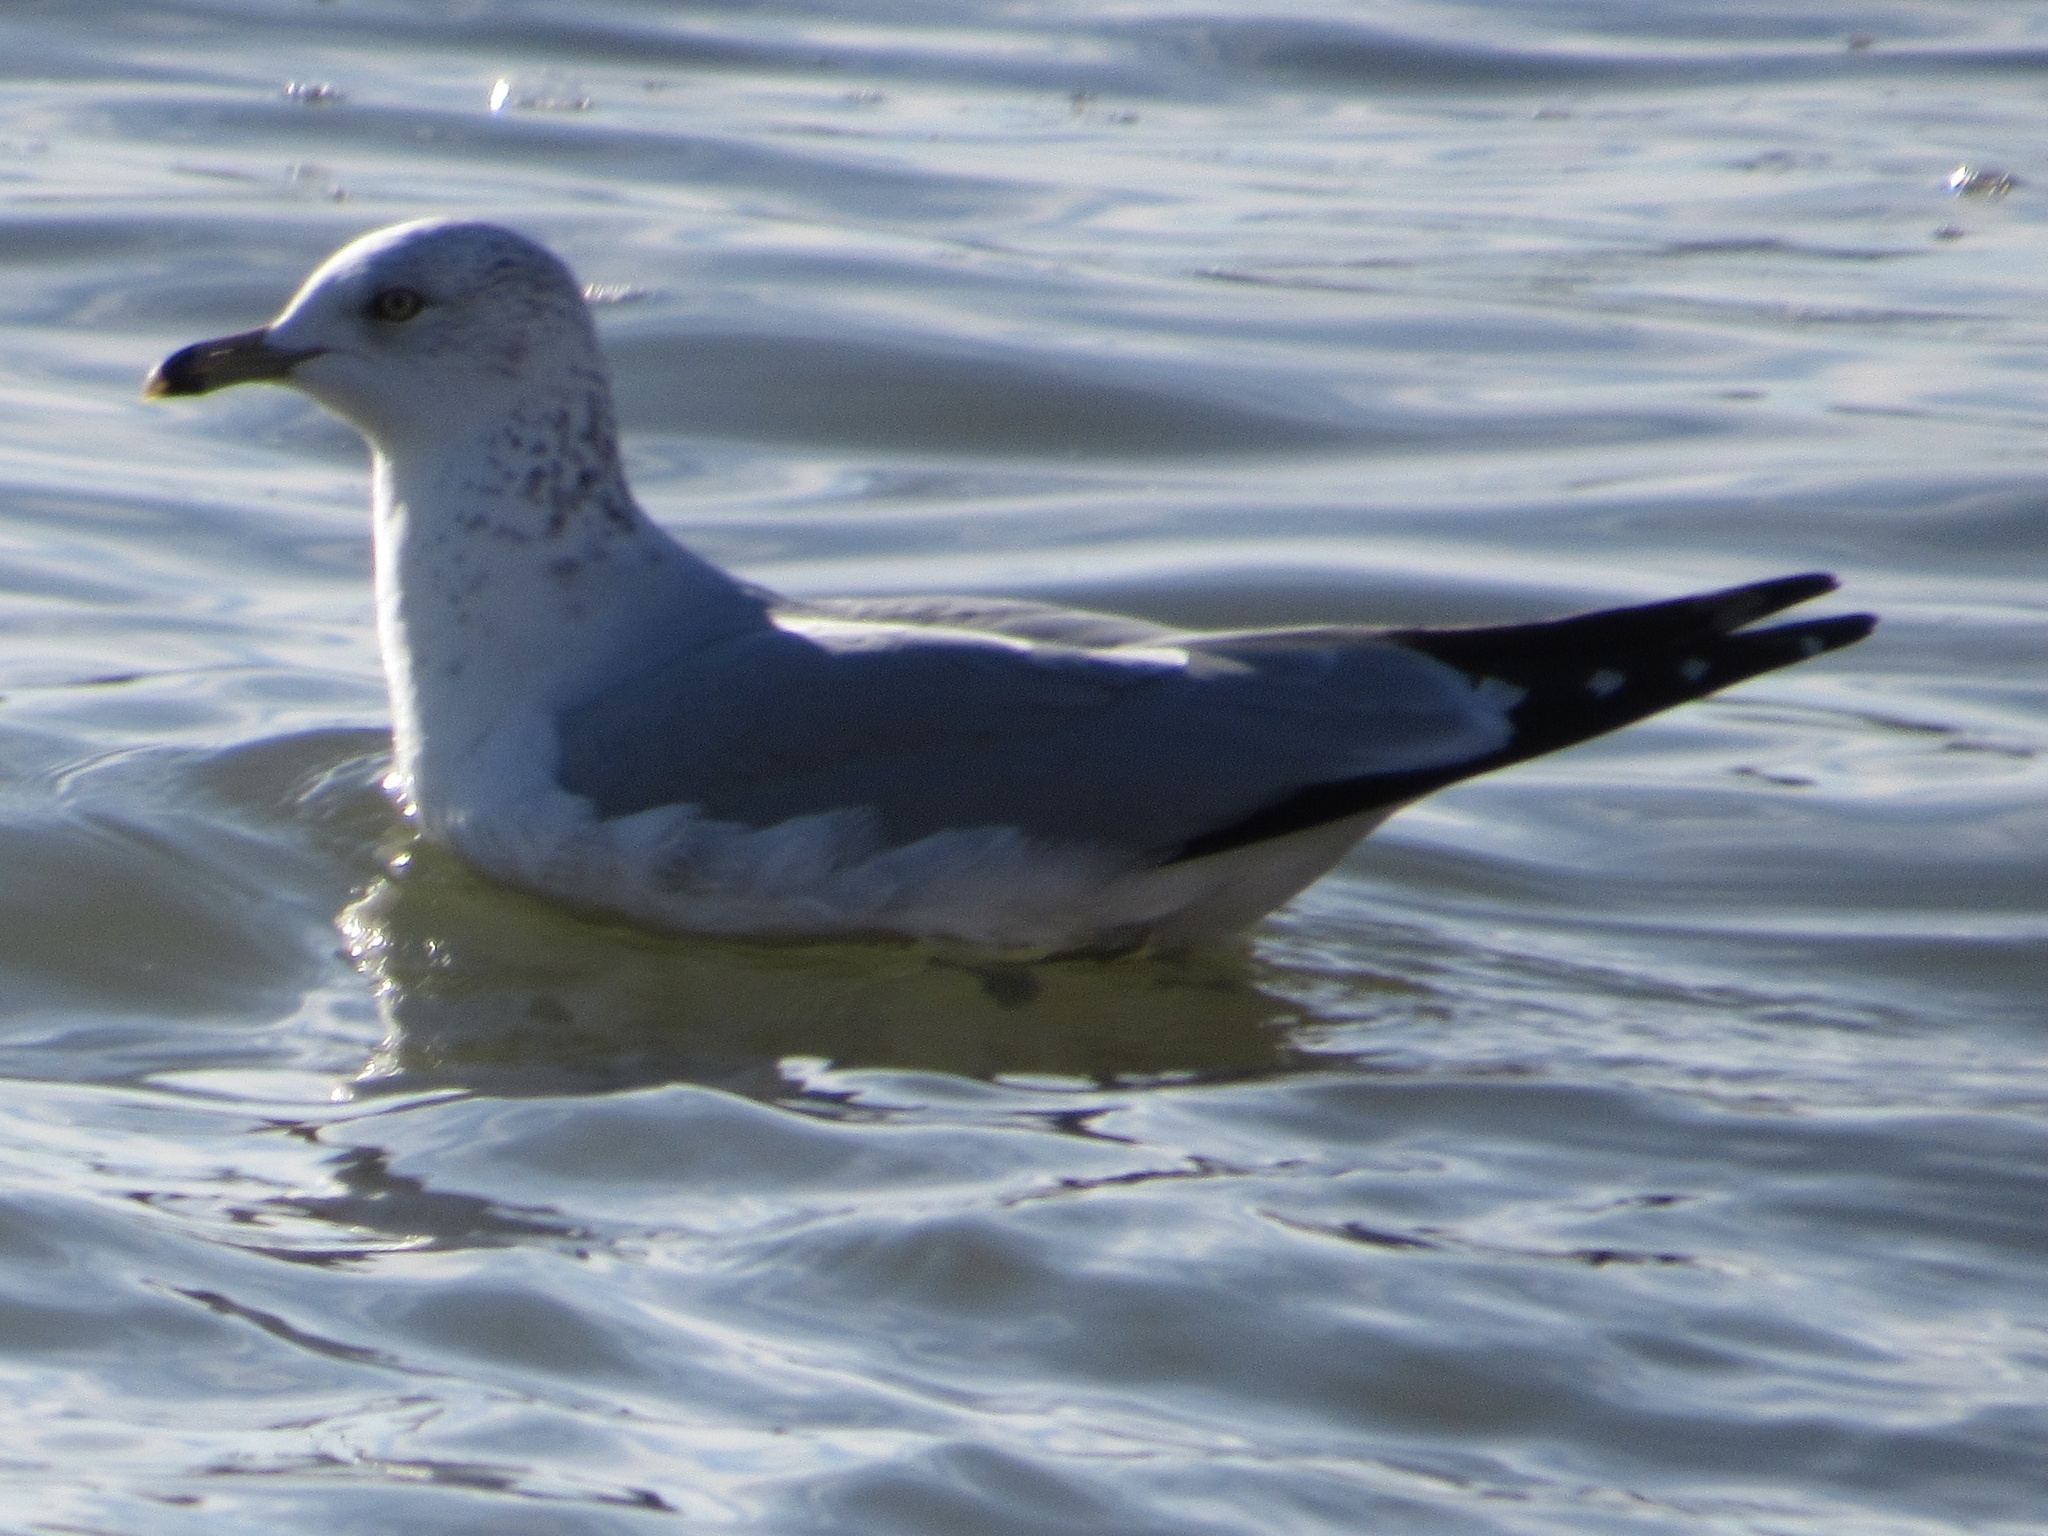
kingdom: Animalia
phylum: Chordata
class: Aves
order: Charadriiformes
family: Laridae
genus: Larus
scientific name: Larus delawarensis
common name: Ring-billed gull
